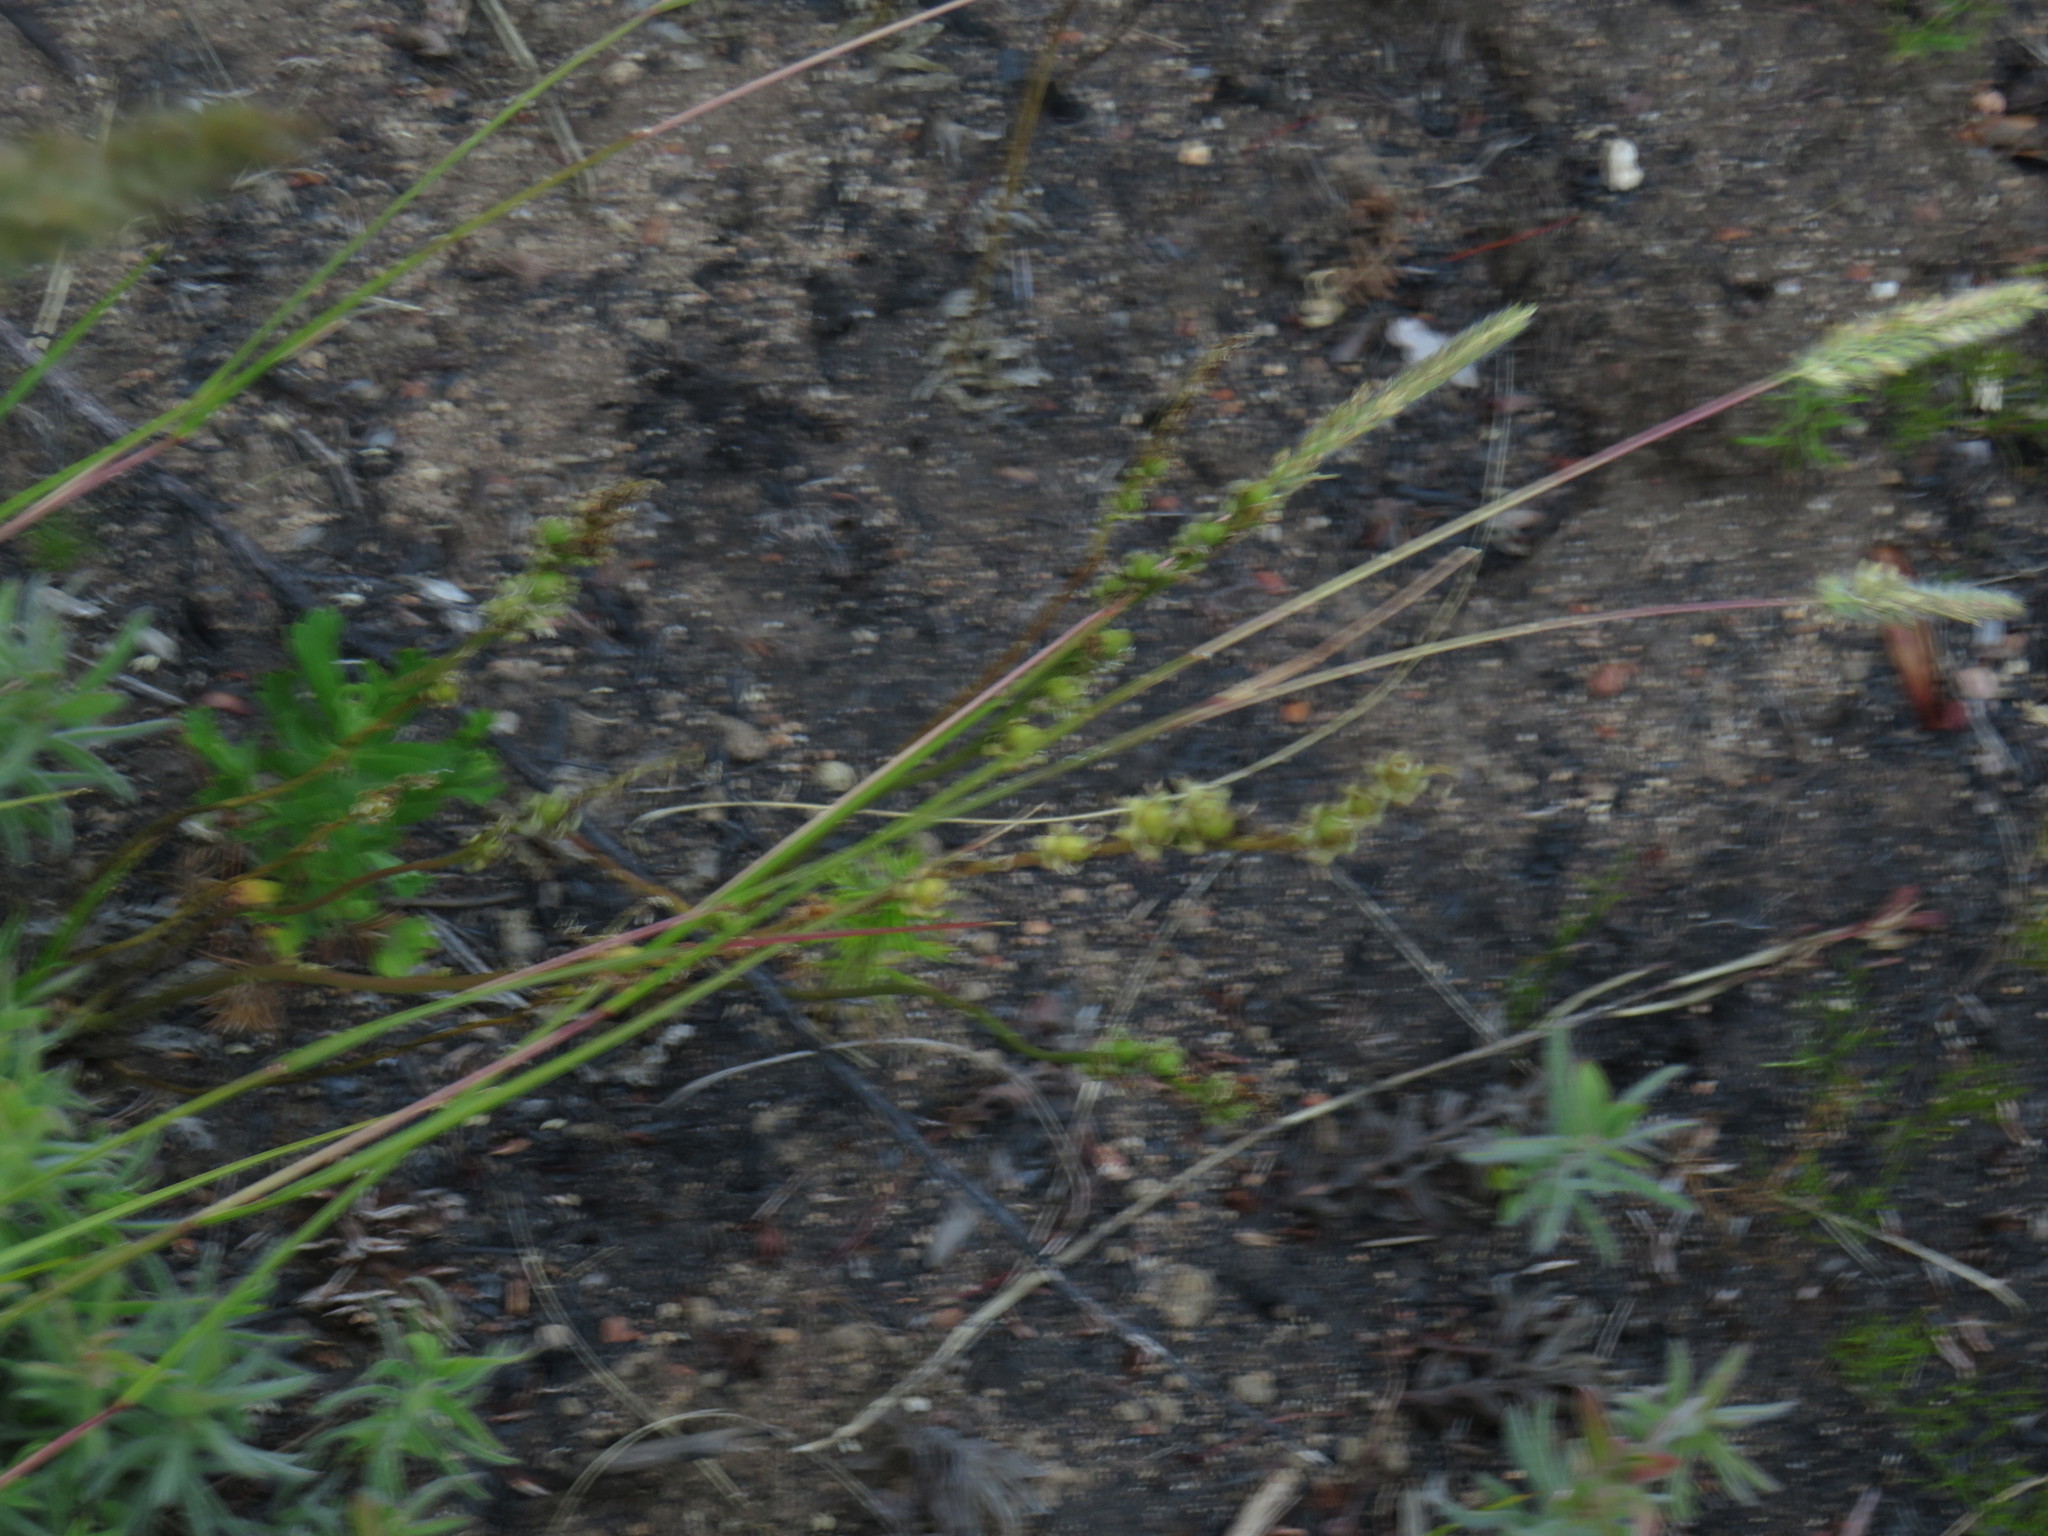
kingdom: Plantae
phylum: Tracheophyta
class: Liliopsida
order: Poales
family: Poaceae
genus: Tribolium
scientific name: Tribolium uniolae
